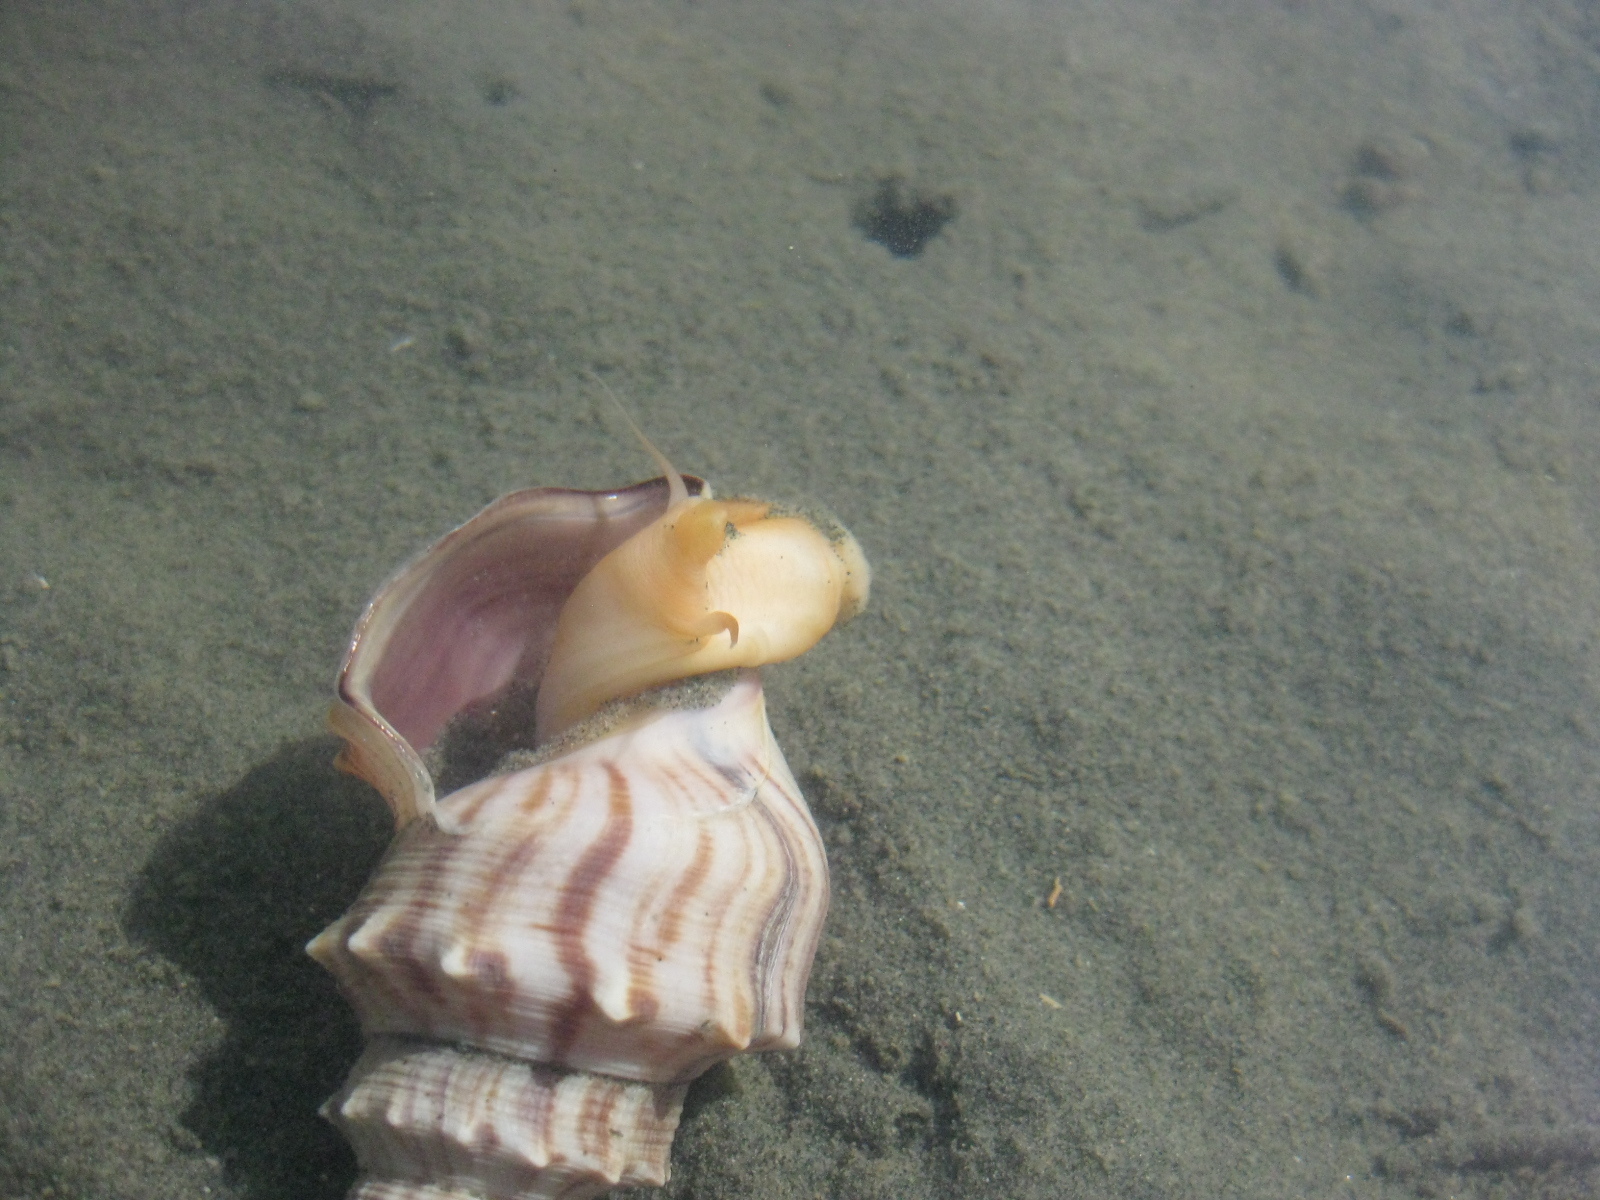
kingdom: Animalia
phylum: Mollusca
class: Gastropoda
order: Littorinimorpha
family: Struthiolariidae
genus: Struthiolaria
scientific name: Struthiolaria papulosa
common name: Large ostrich foot
